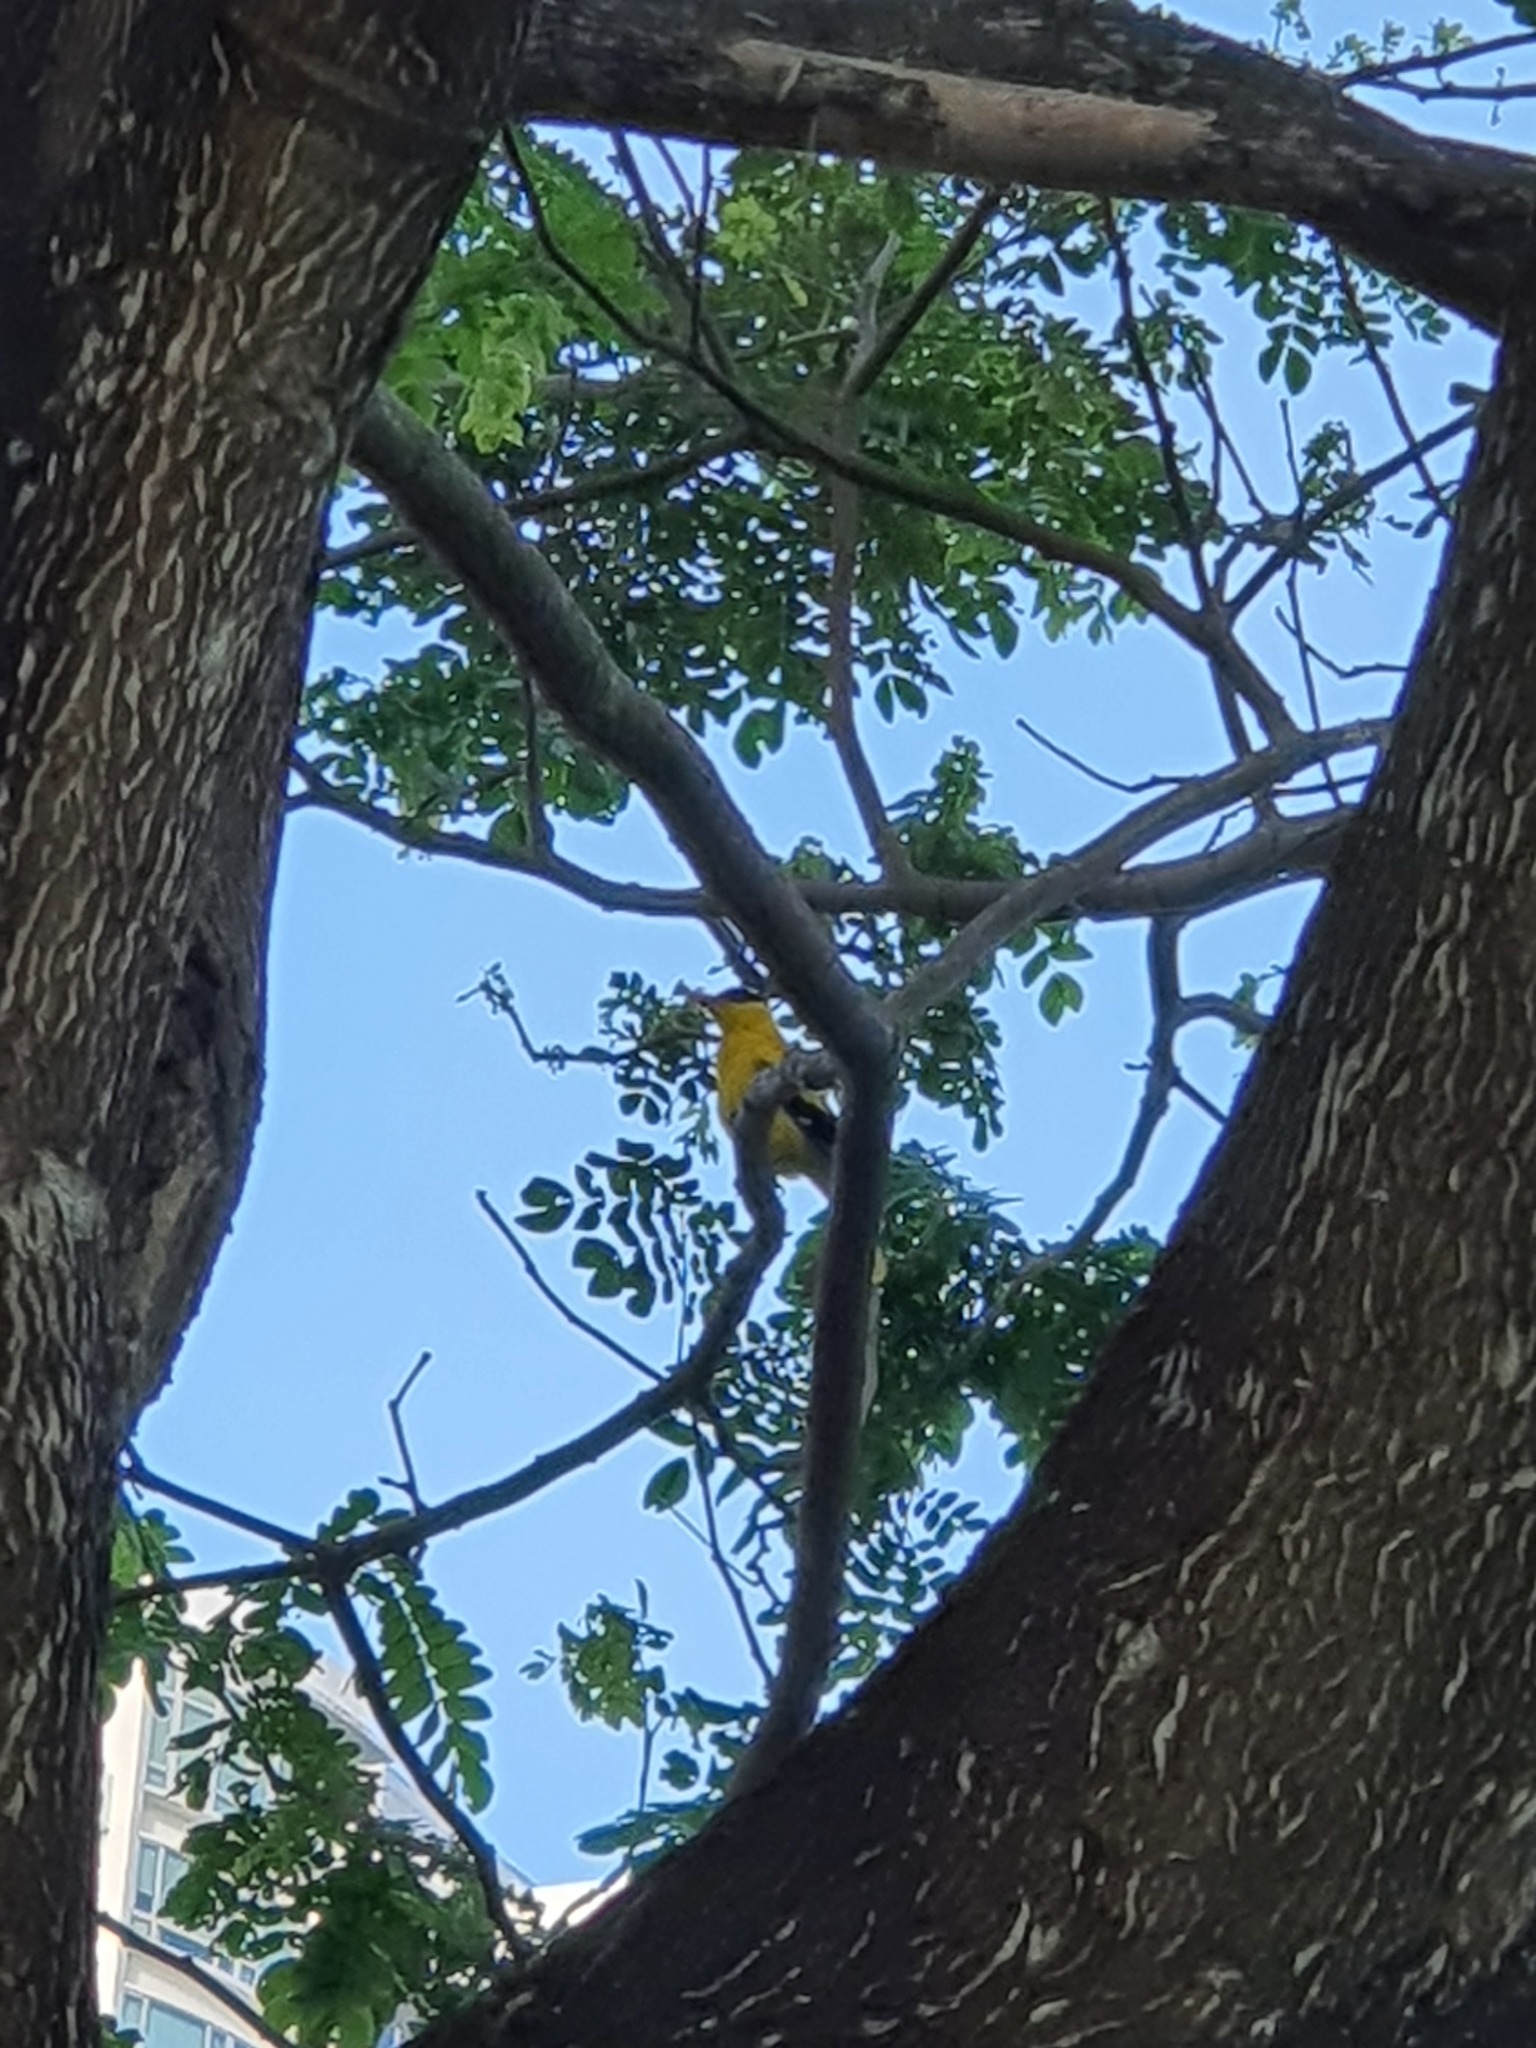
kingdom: Animalia
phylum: Chordata
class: Aves
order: Passeriformes
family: Oriolidae
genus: Oriolus
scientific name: Oriolus chinensis
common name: Black-naped oriole
